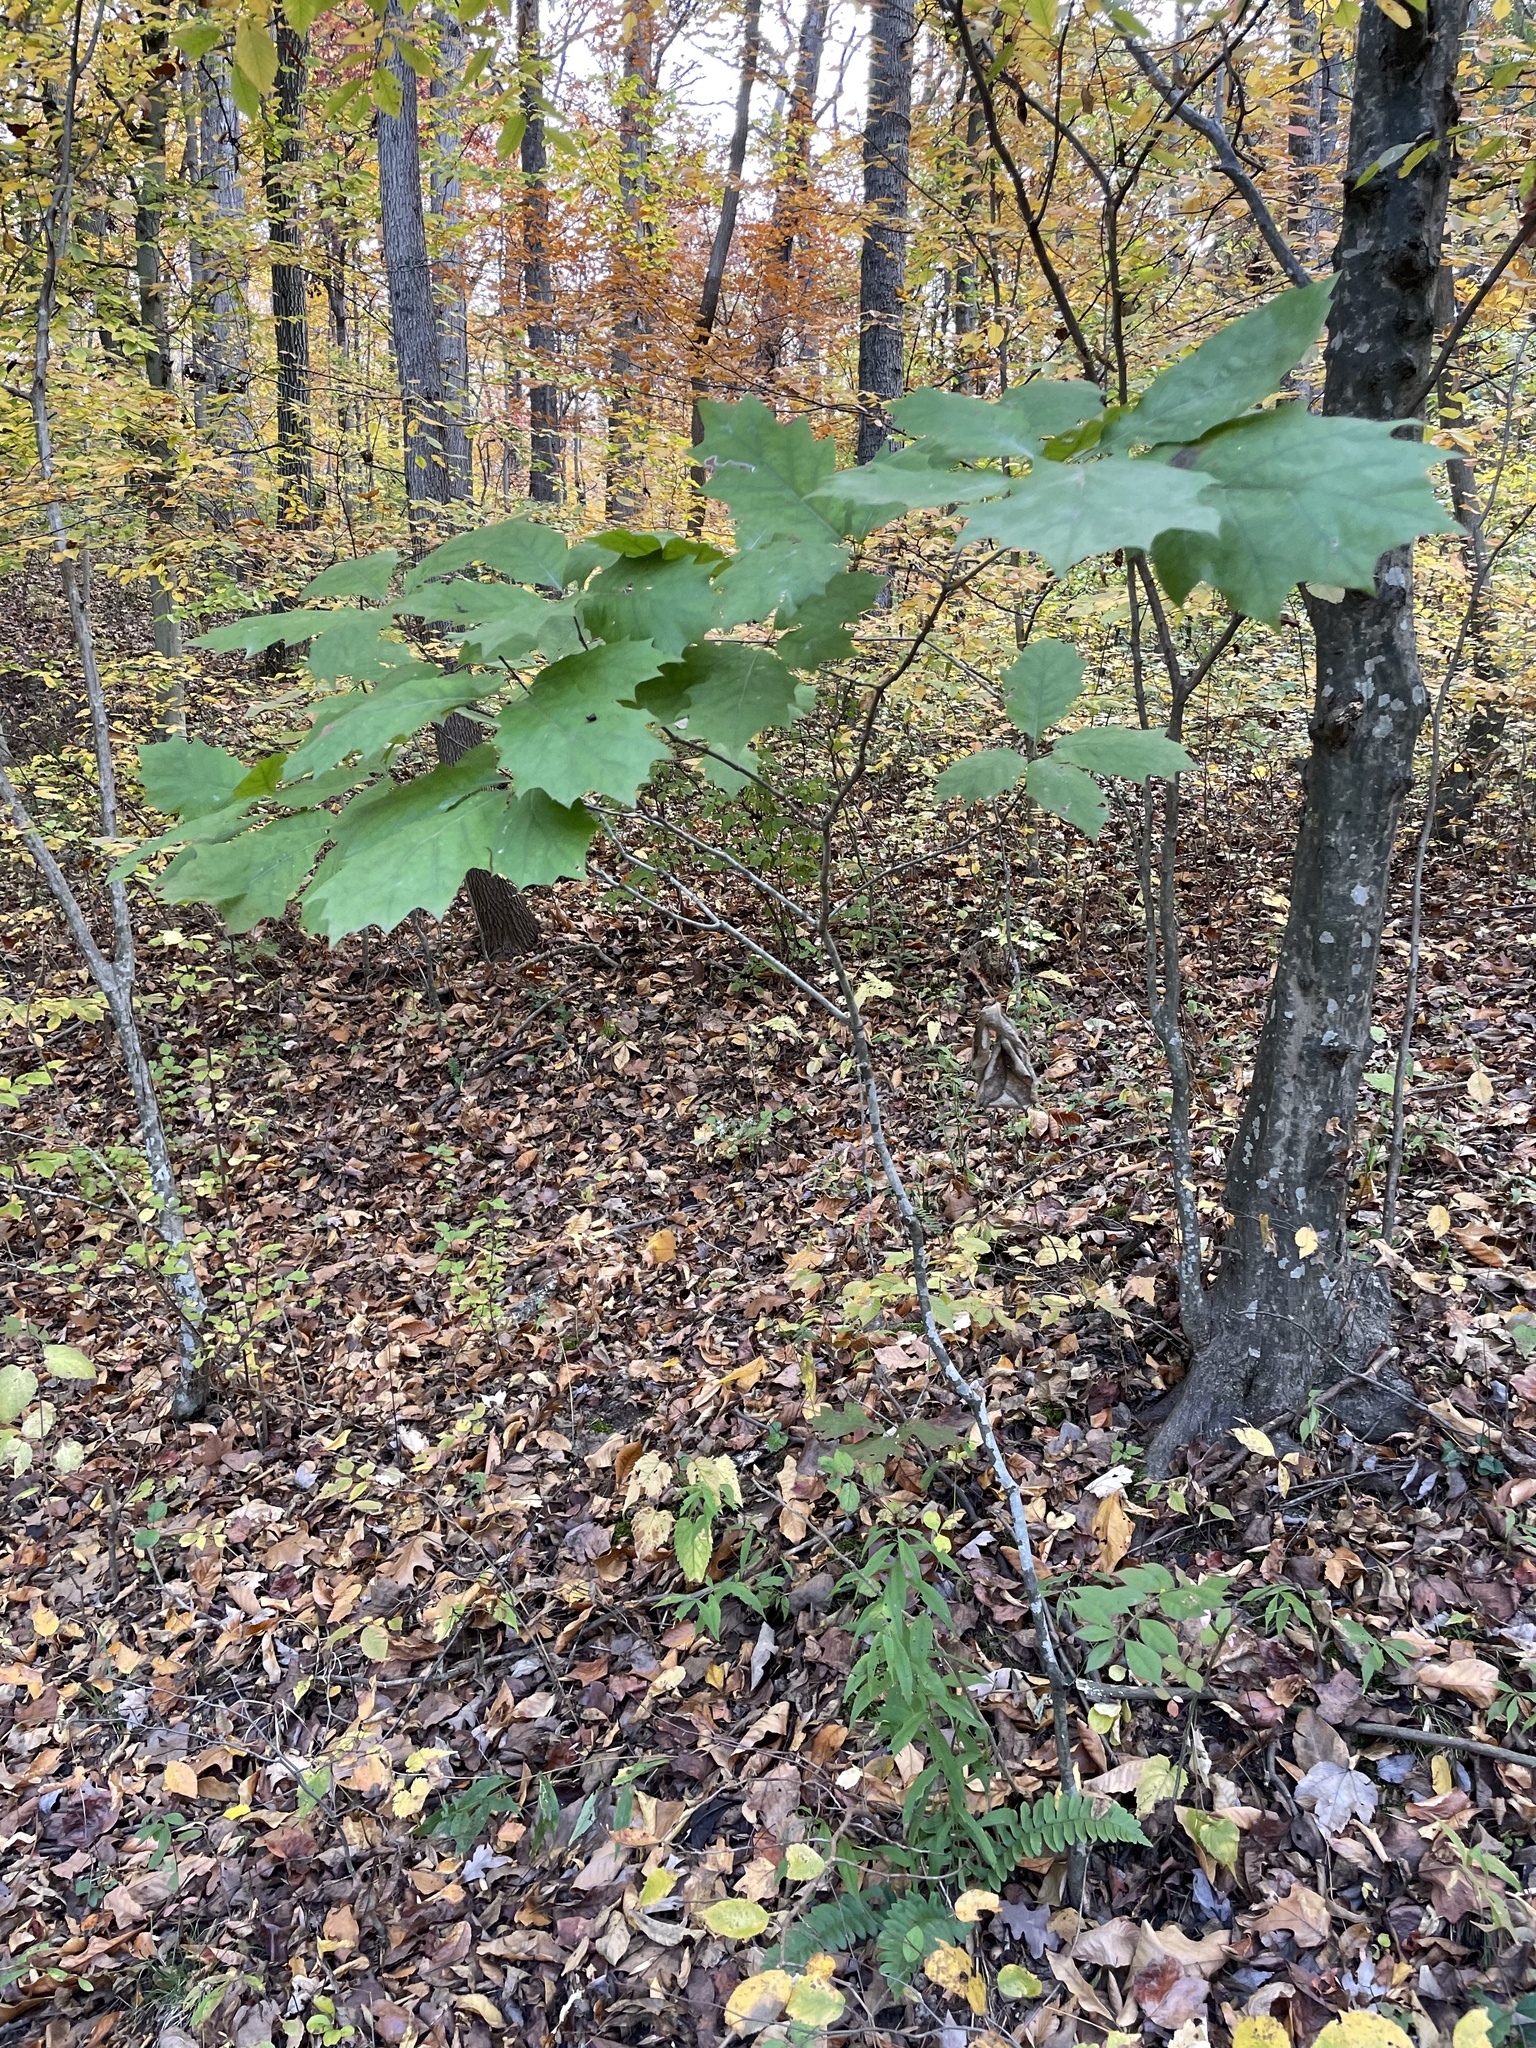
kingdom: Plantae
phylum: Tracheophyta
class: Magnoliopsida
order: Fagales
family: Fagaceae
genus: Quercus
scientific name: Quercus rubra
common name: Red oak
